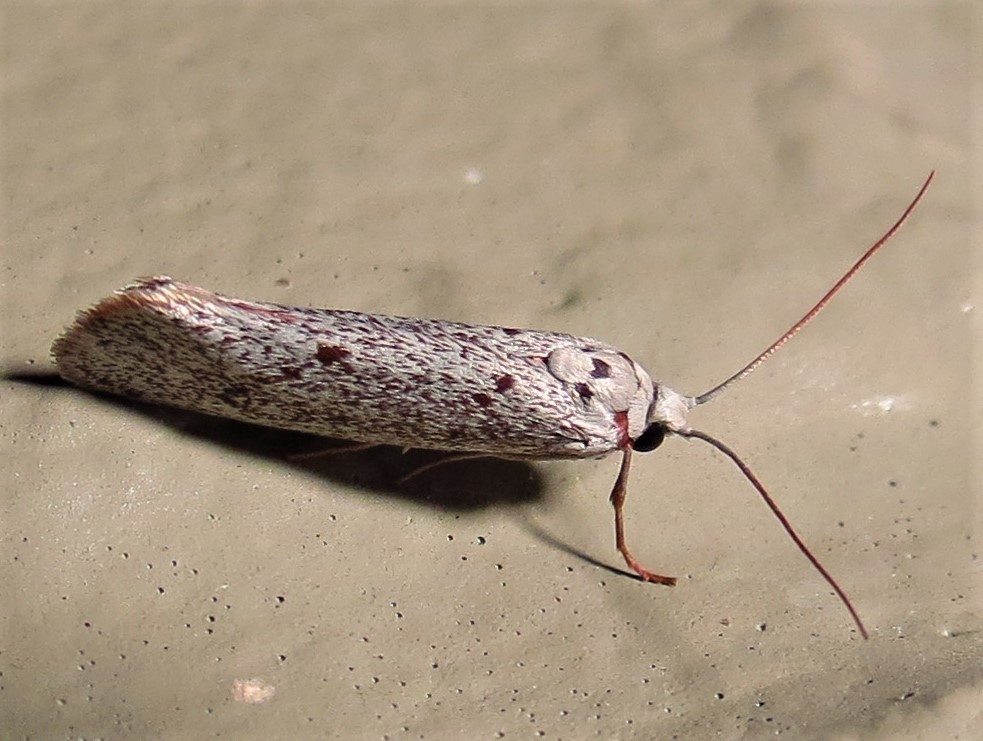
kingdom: Animalia
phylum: Arthropoda
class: Insecta
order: Lepidoptera
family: Lacturidae
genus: Lactura
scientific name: Lactura
